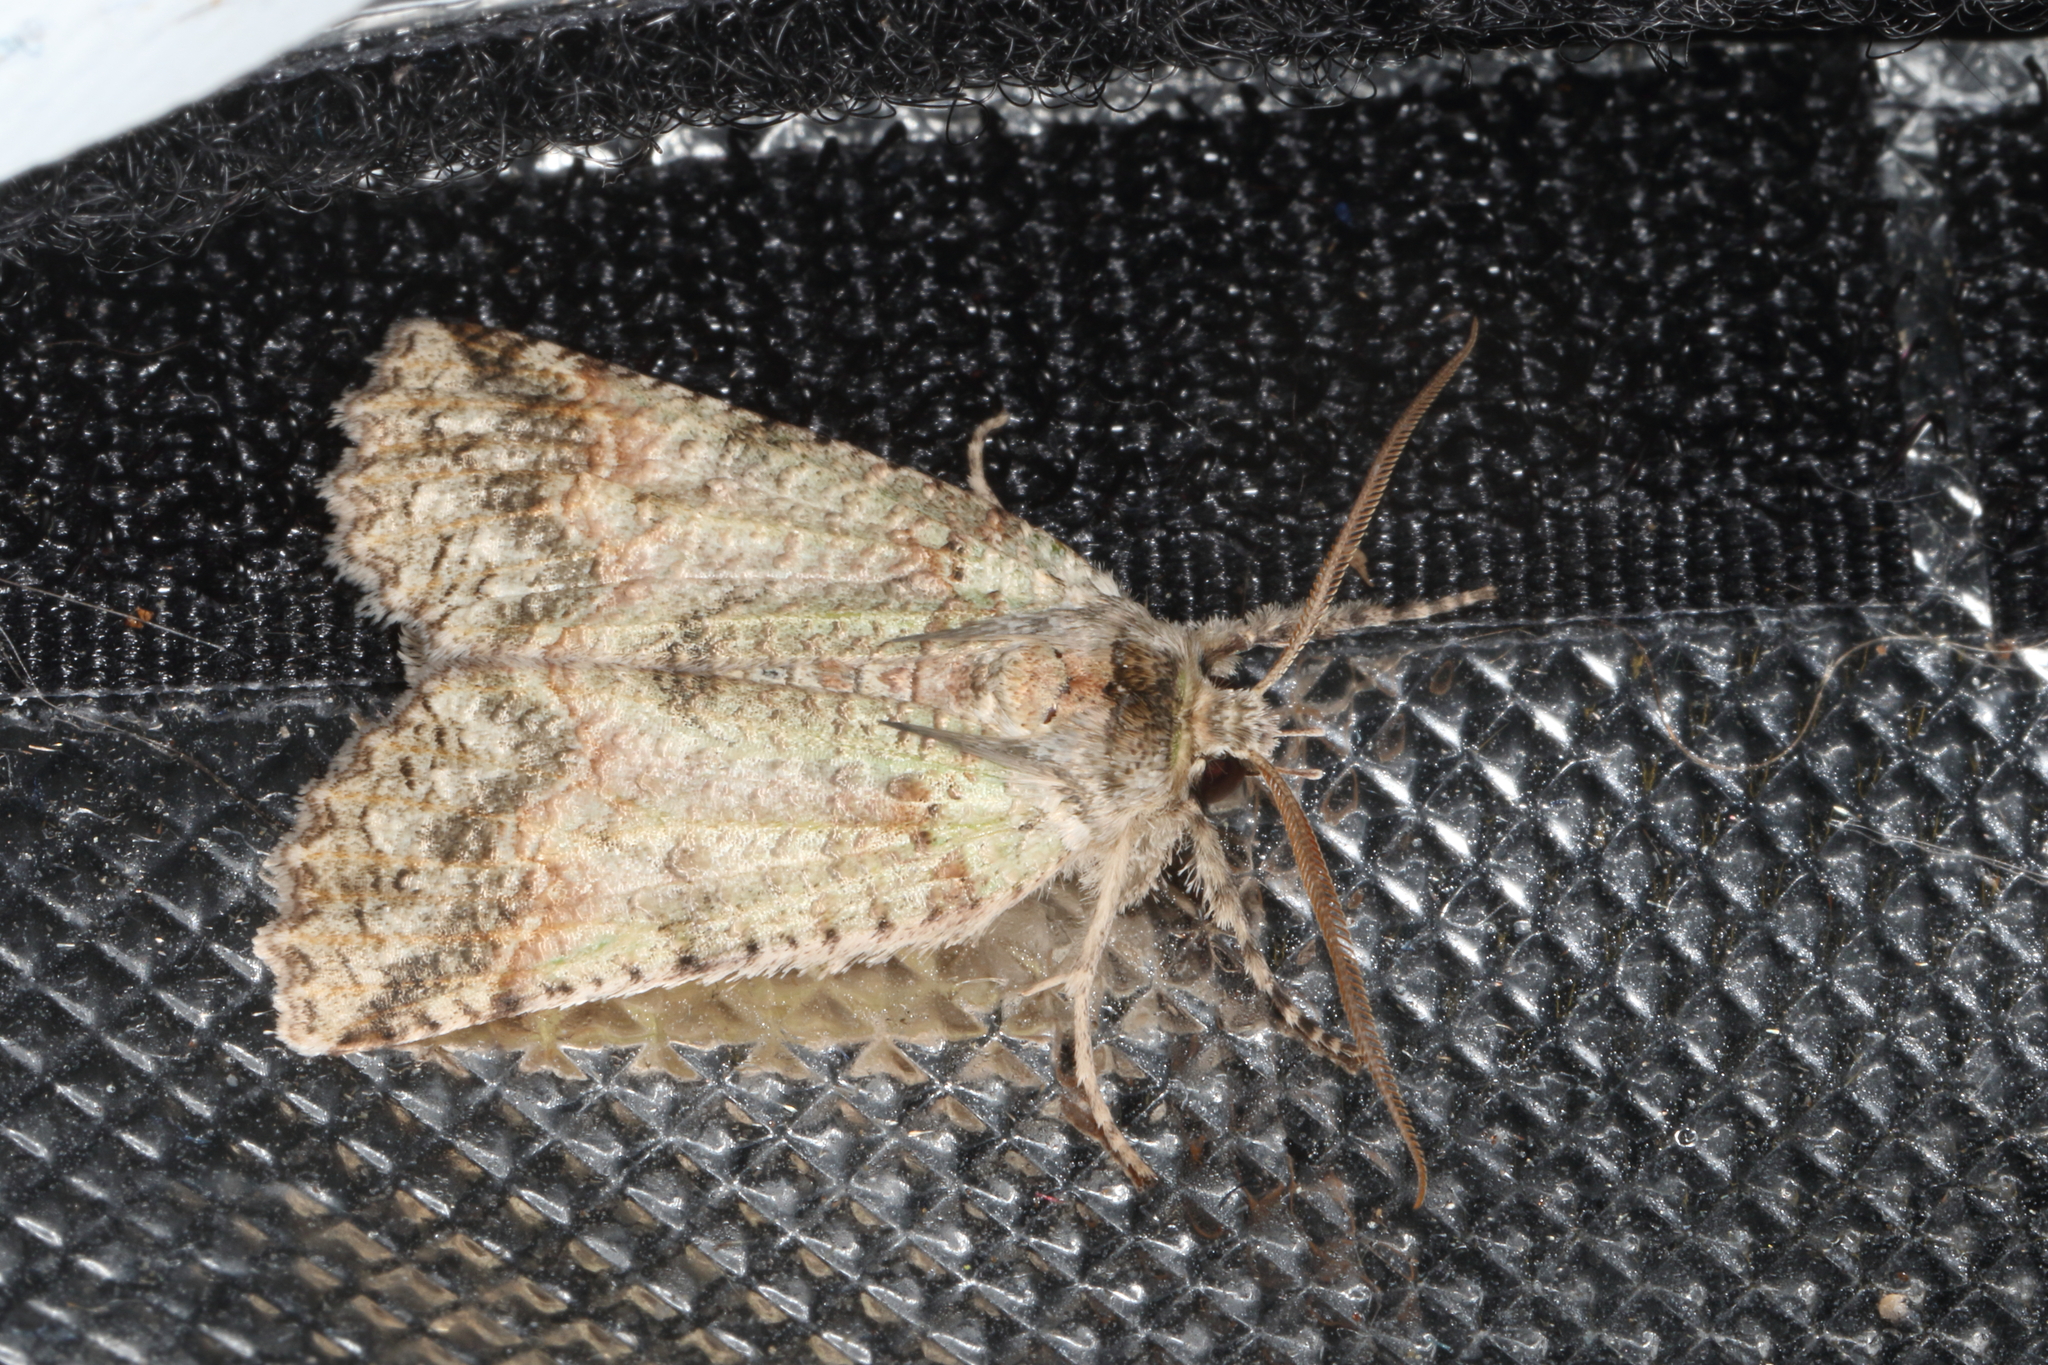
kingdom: Animalia
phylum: Arthropoda
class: Insecta
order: Lepidoptera
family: Geometridae
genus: Declana
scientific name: Declana floccosa
